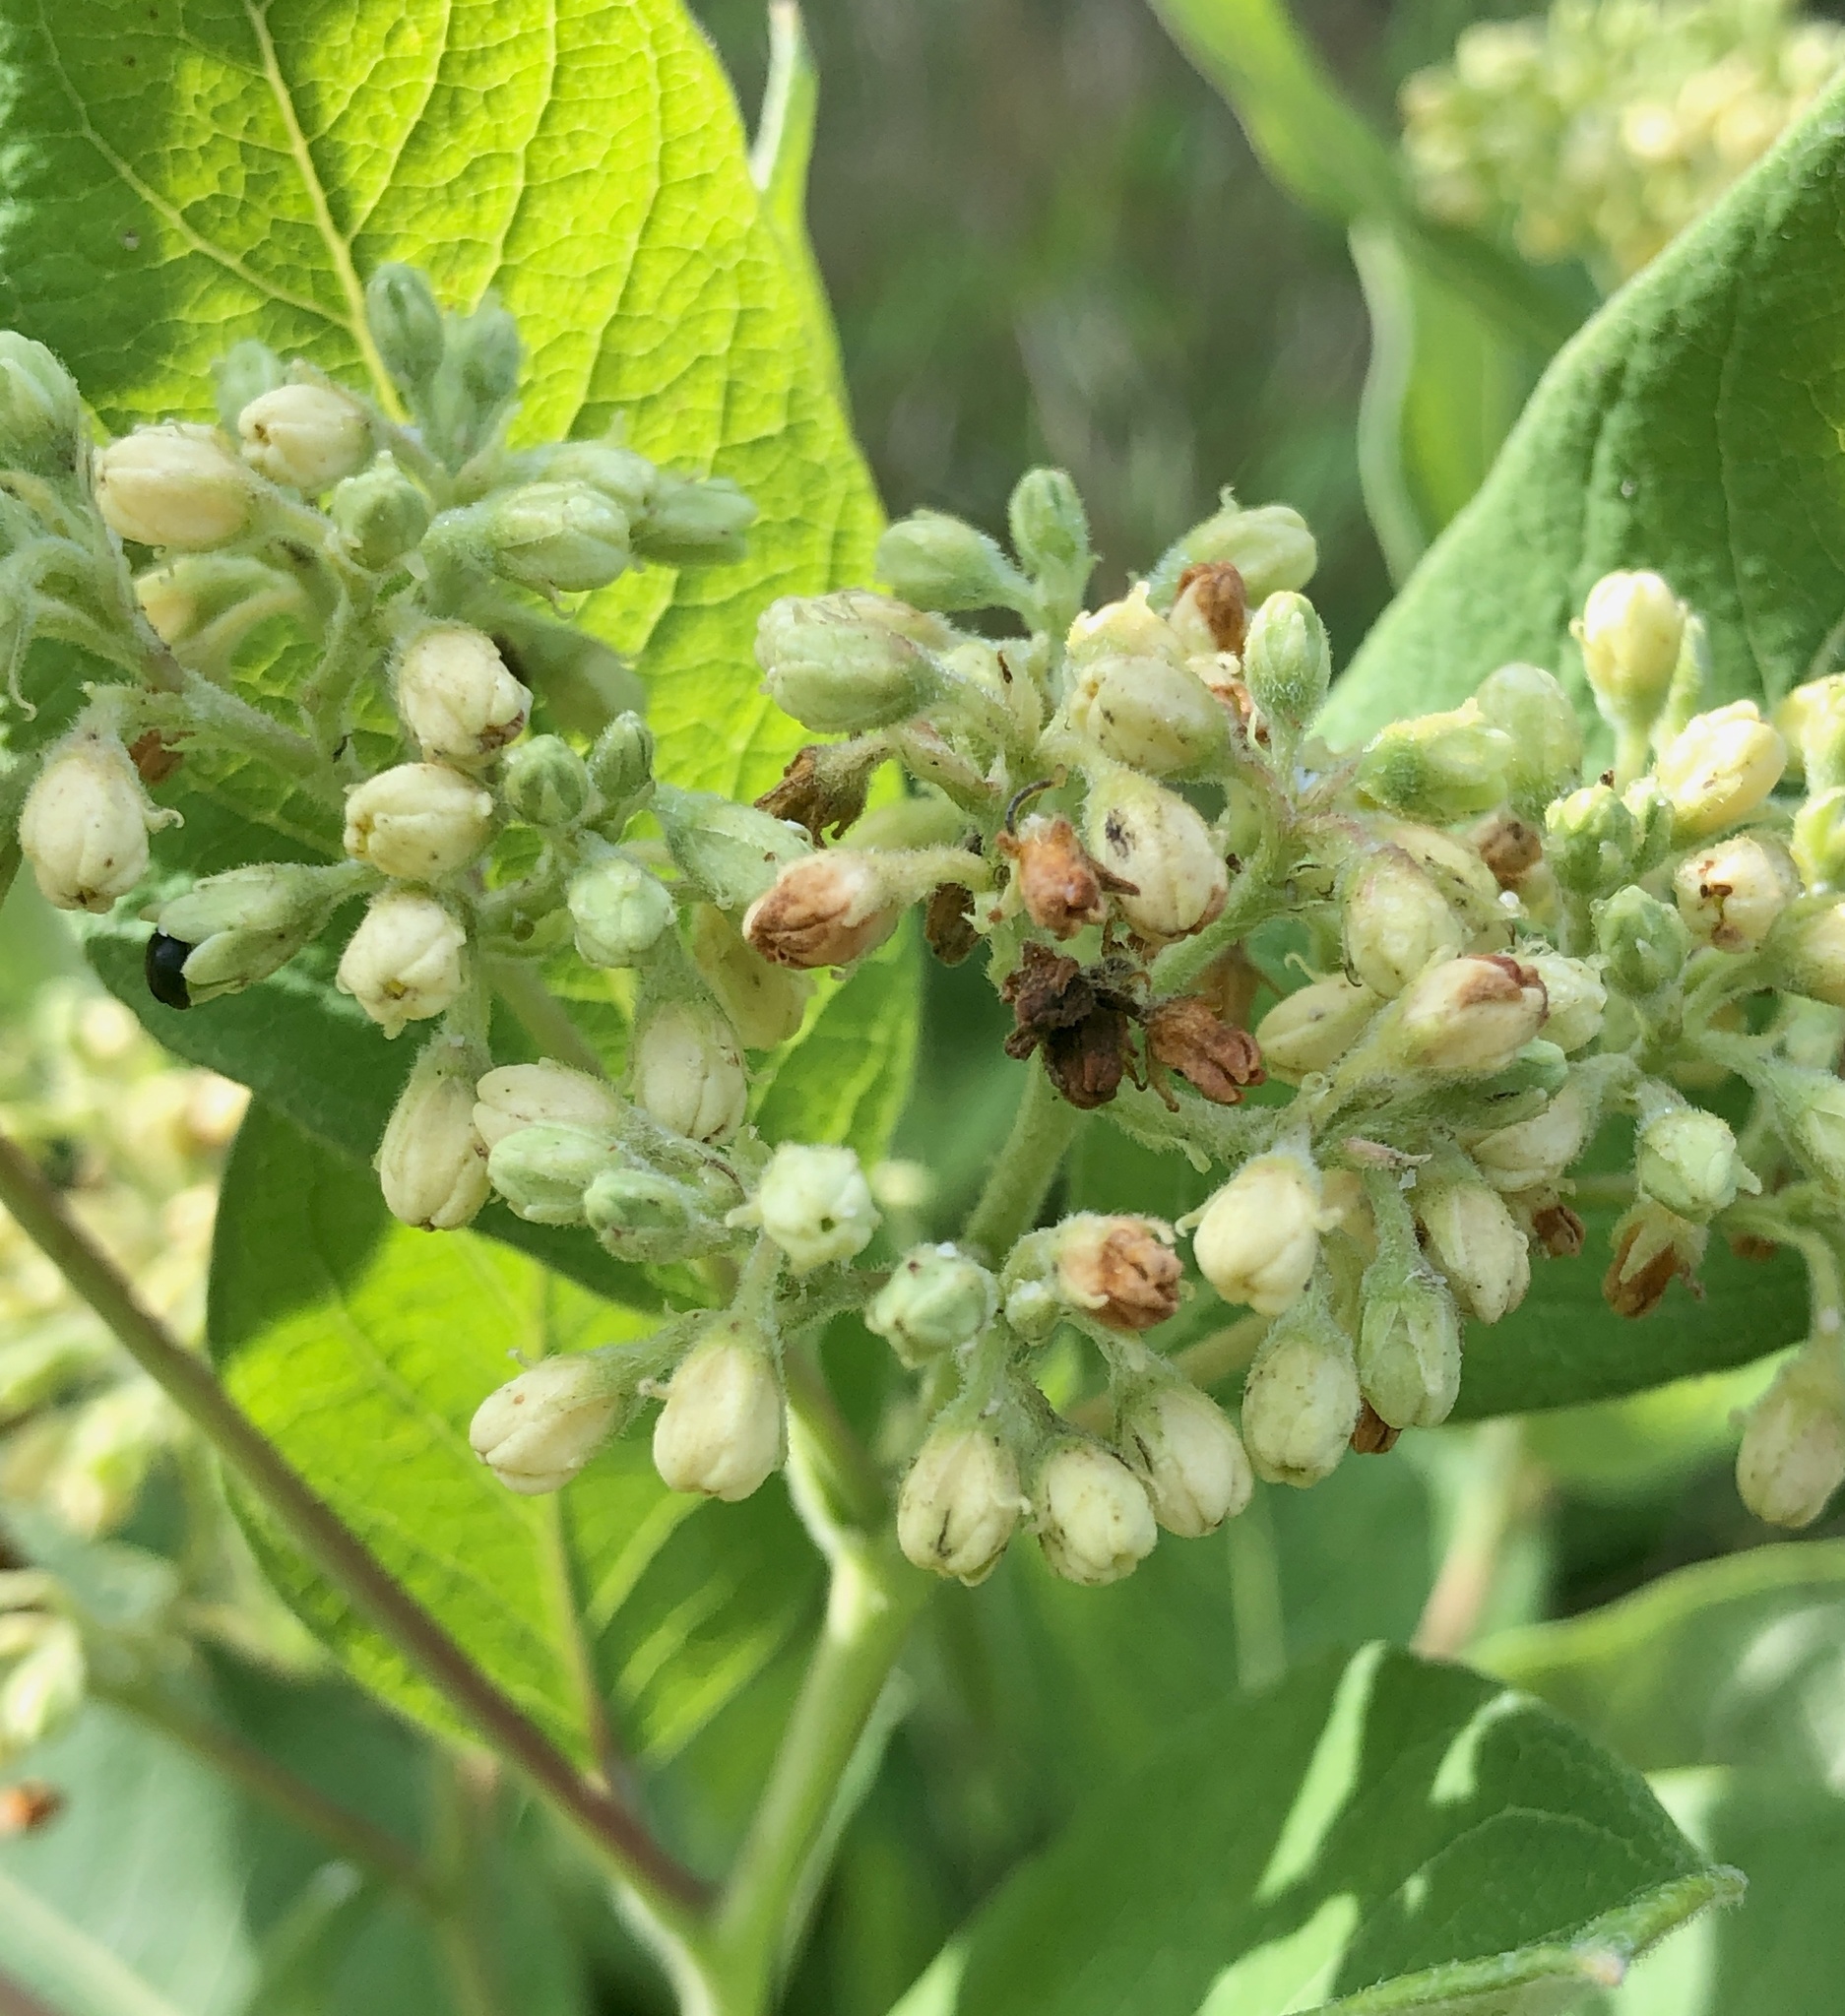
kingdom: Plantae
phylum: Tracheophyta
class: Magnoliopsida
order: Gentianales
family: Apocynaceae
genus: Apocynum
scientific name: Apocynum cannabinum
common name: Hemp dogbane
